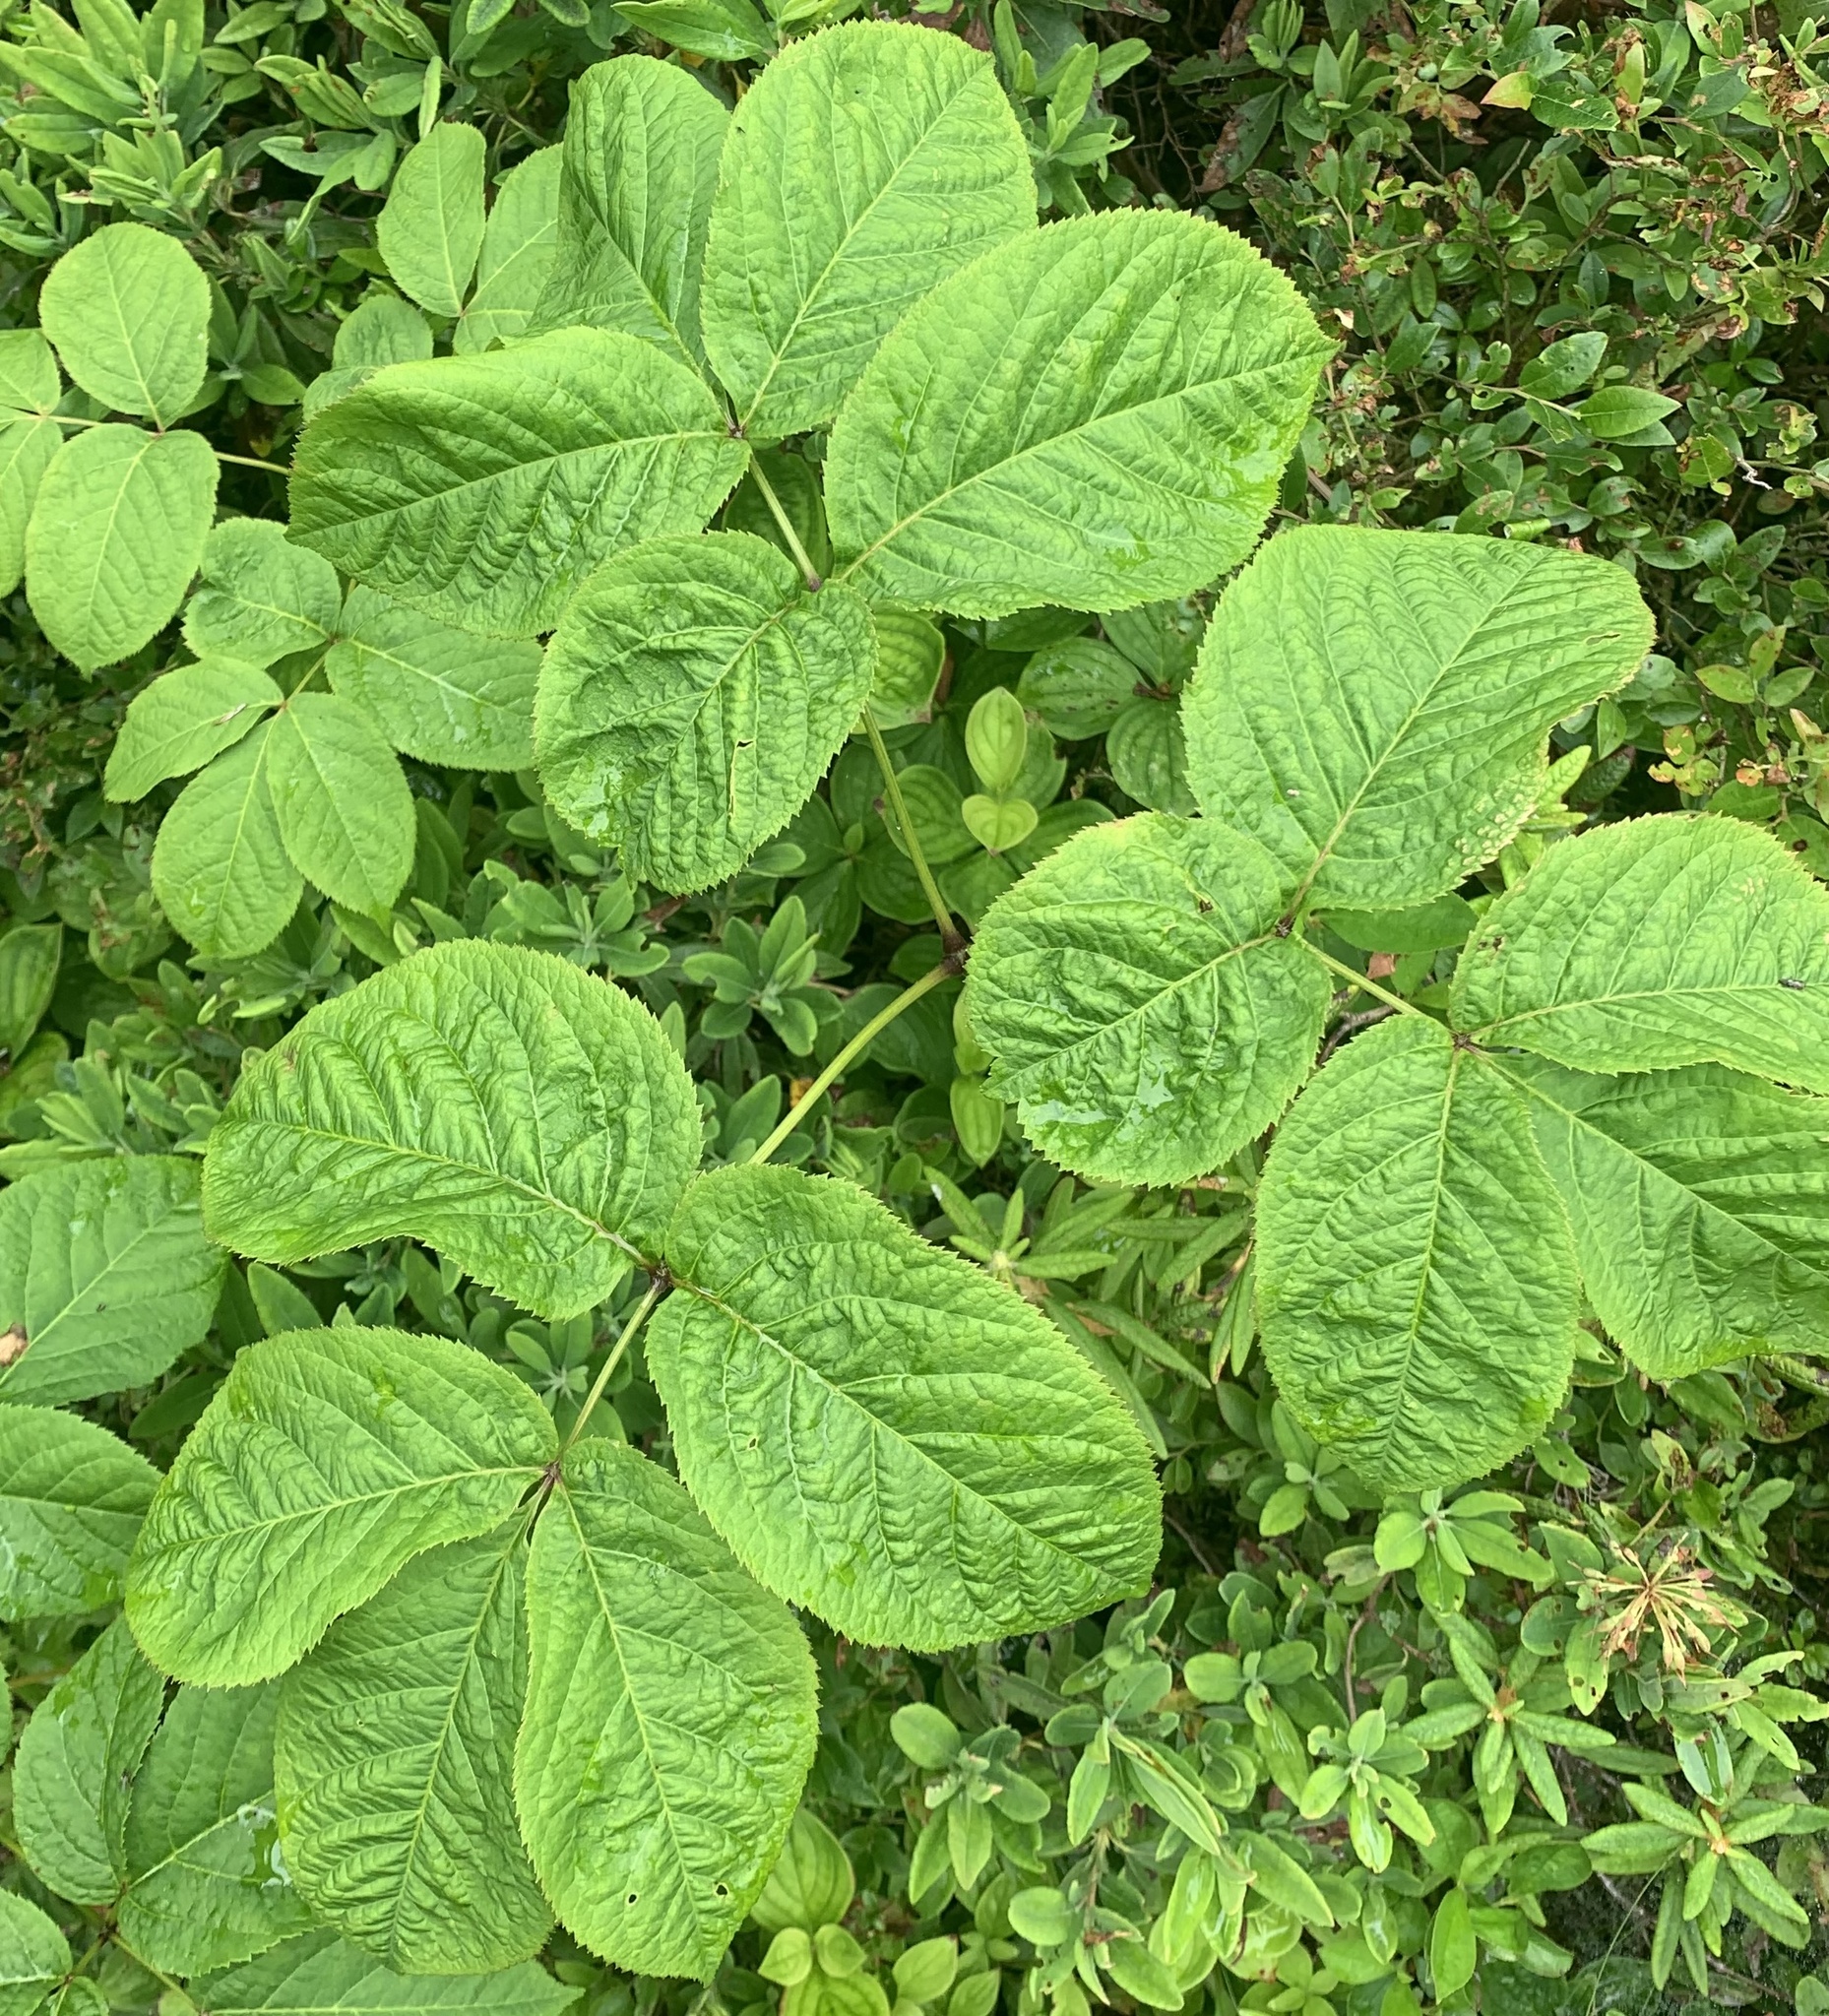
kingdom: Plantae
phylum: Tracheophyta
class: Magnoliopsida
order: Apiales
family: Araliaceae
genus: Aralia
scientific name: Aralia nudicaulis
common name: Wild sarsaparilla
